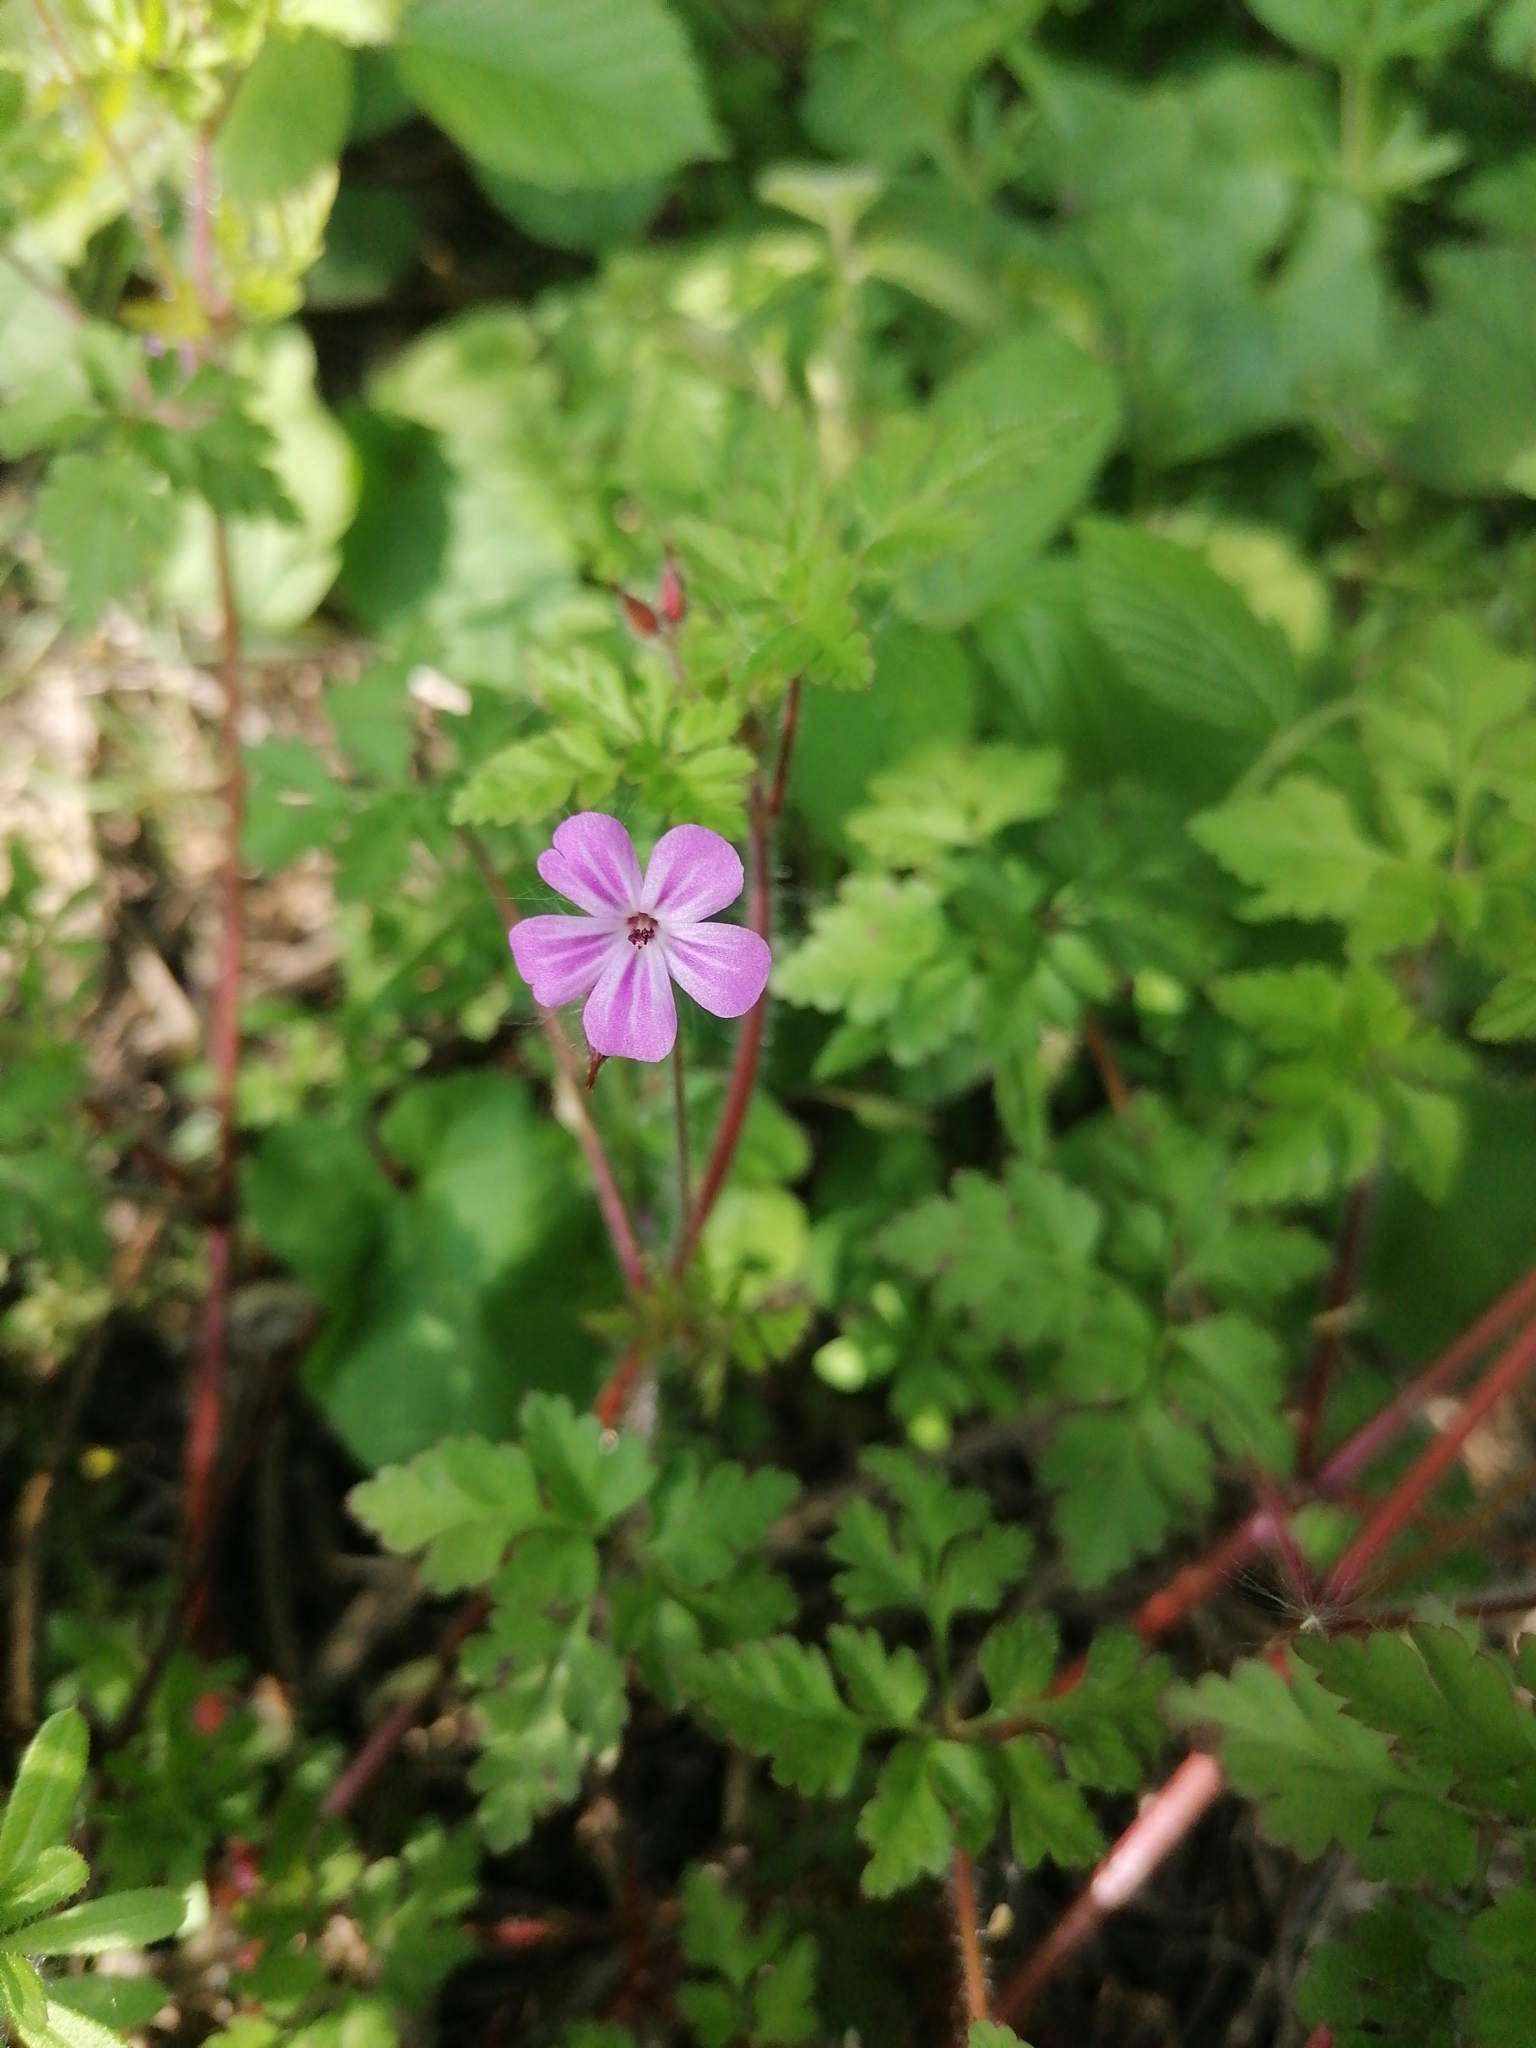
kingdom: Plantae
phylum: Tracheophyta
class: Magnoliopsida
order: Geraniales
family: Geraniaceae
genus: Geranium
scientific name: Geranium robertianum
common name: Herb-robert
